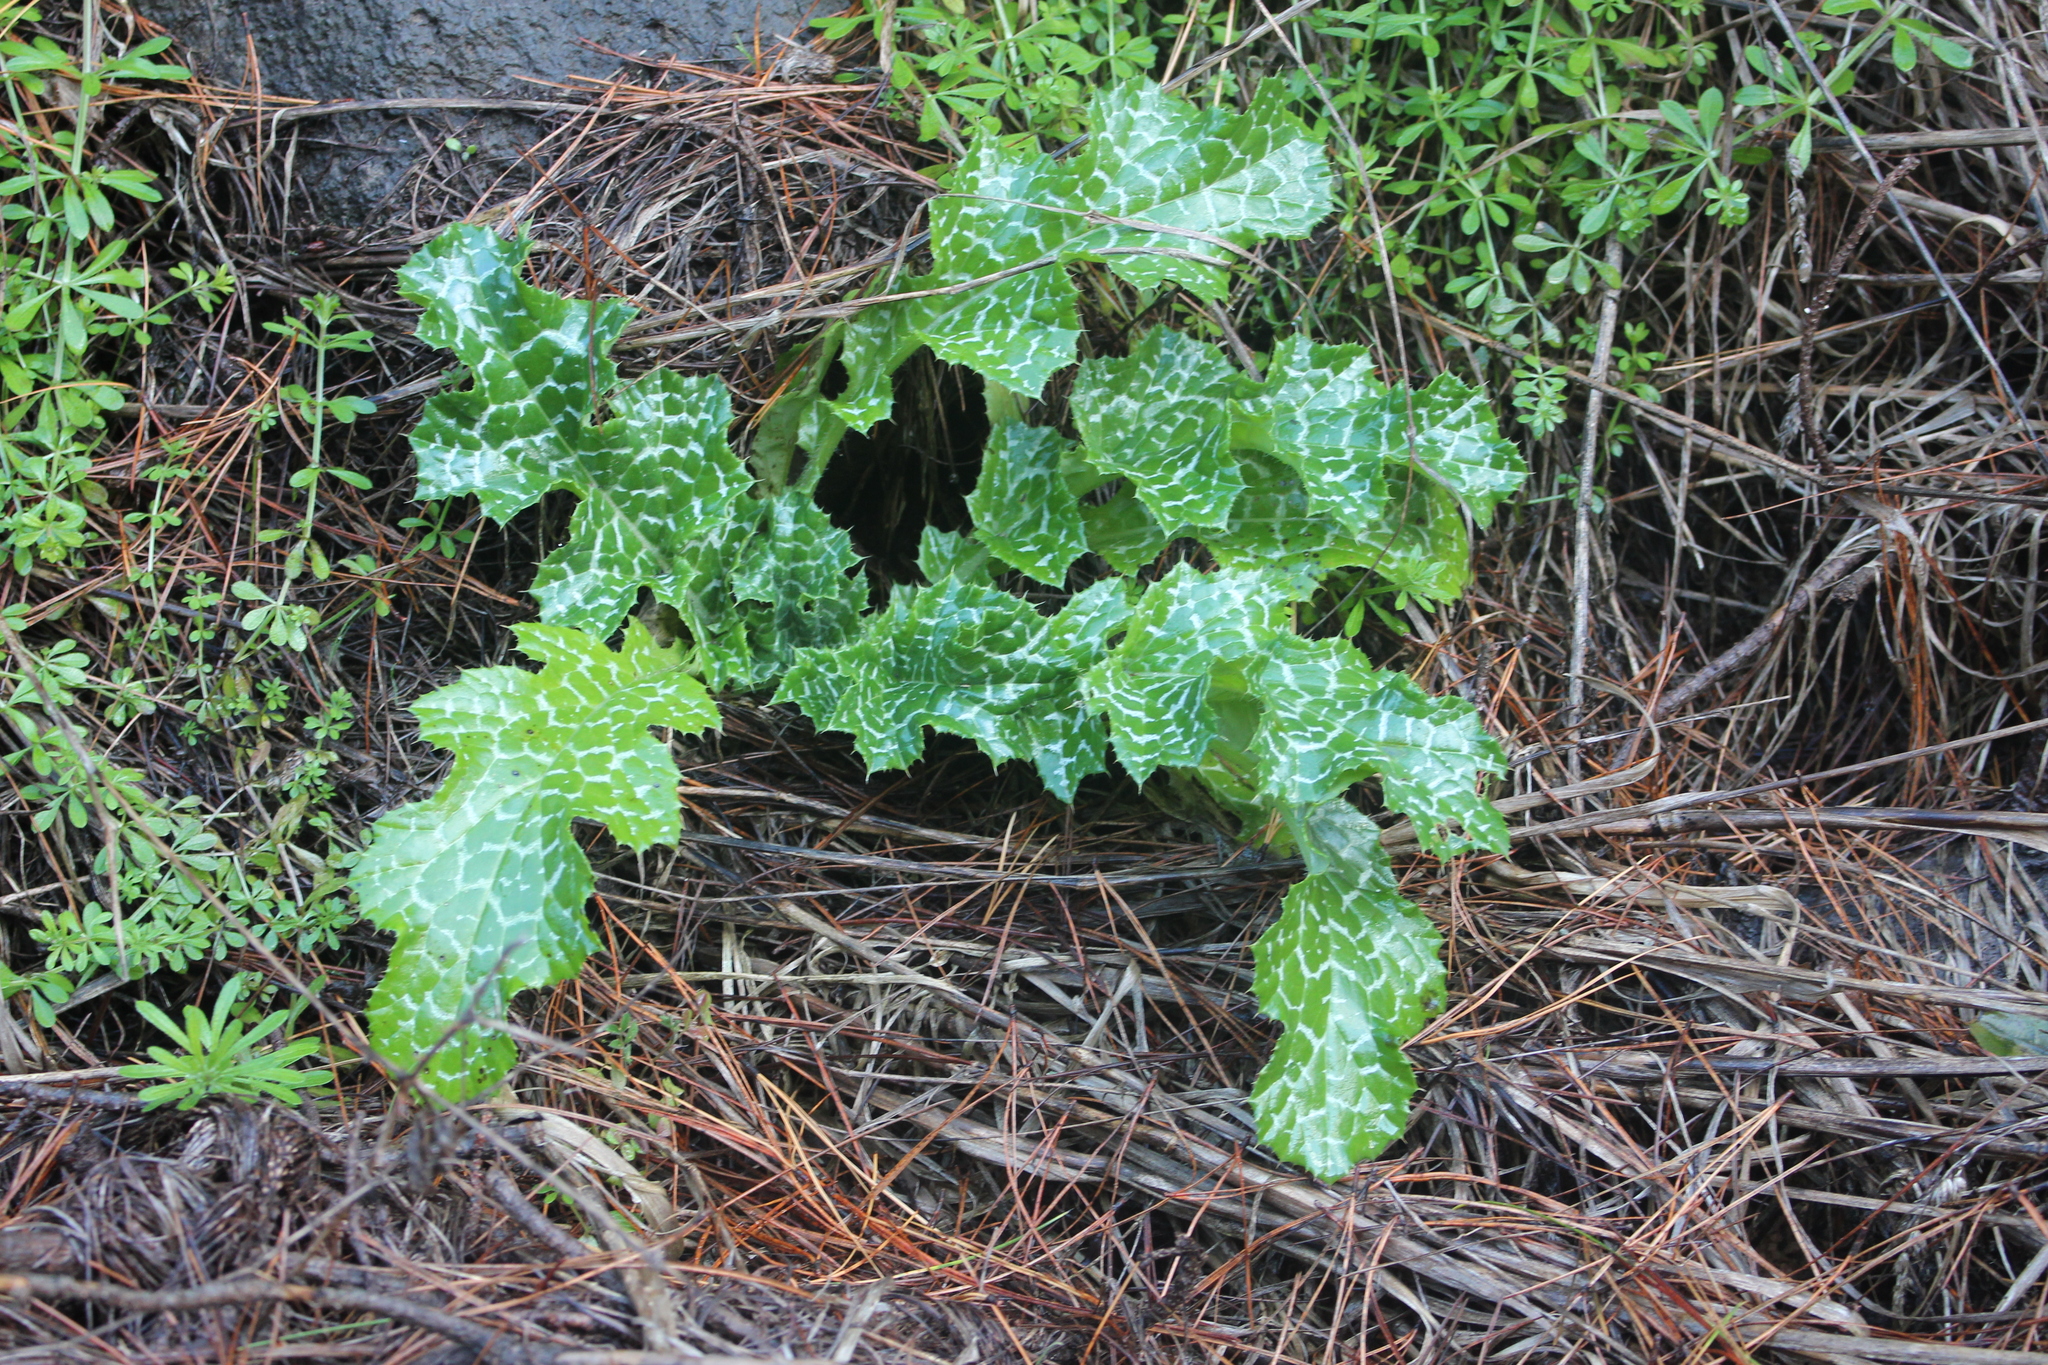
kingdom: Plantae
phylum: Tracheophyta
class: Magnoliopsida
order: Asterales
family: Asteraceae
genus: Silybum
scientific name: Silybum marianum
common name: Milk thistle
